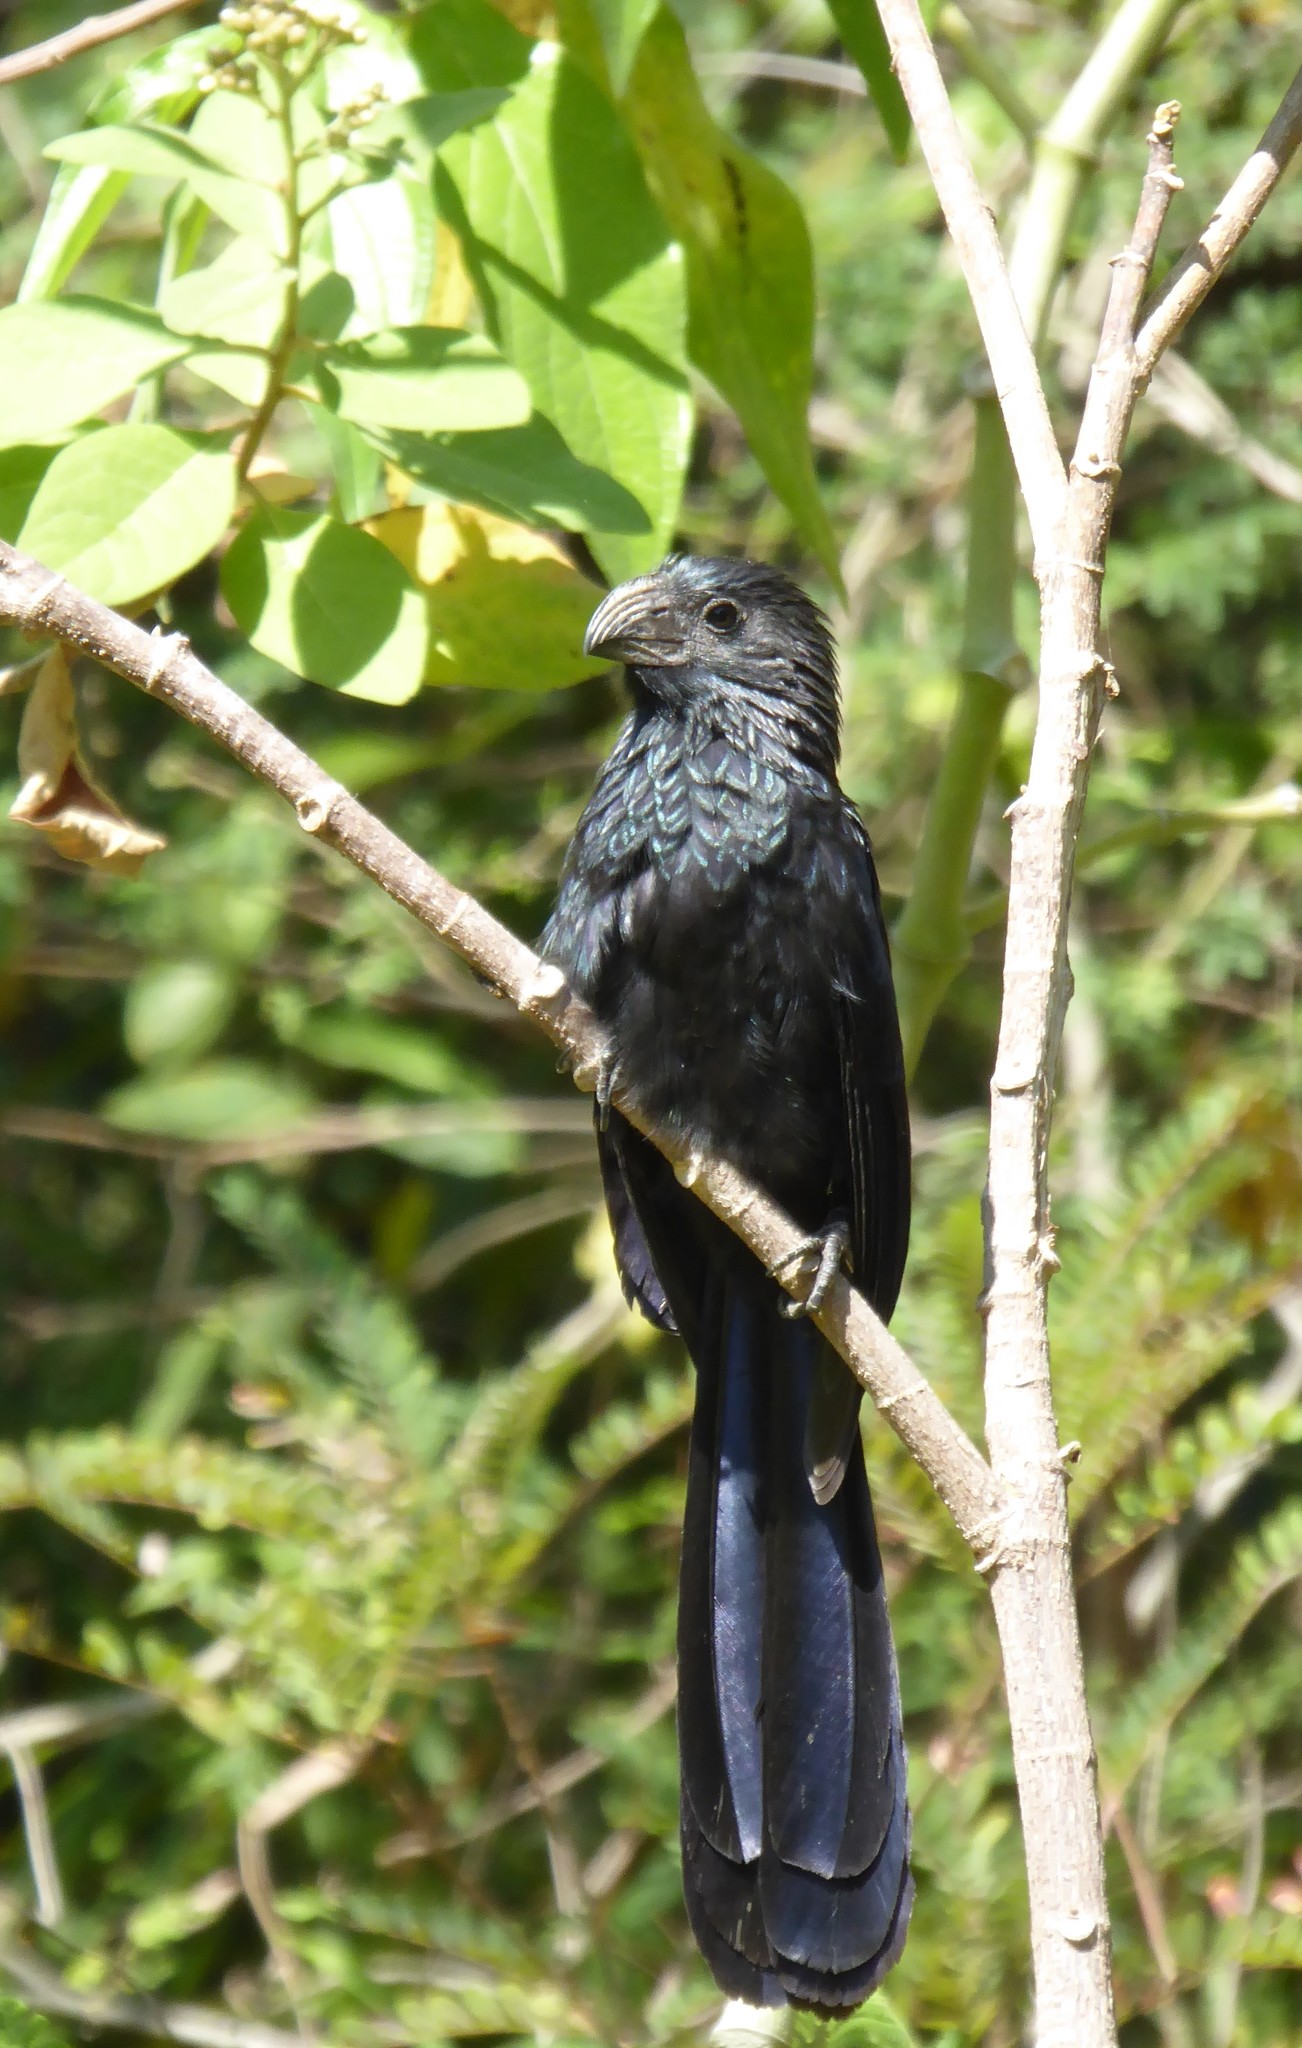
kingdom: Animalia
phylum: Chordata
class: Aves
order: Cuculiformes
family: Cuculidae
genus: Crotophaga
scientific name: Crotophaga sulcirostris
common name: Groove-billed ani
